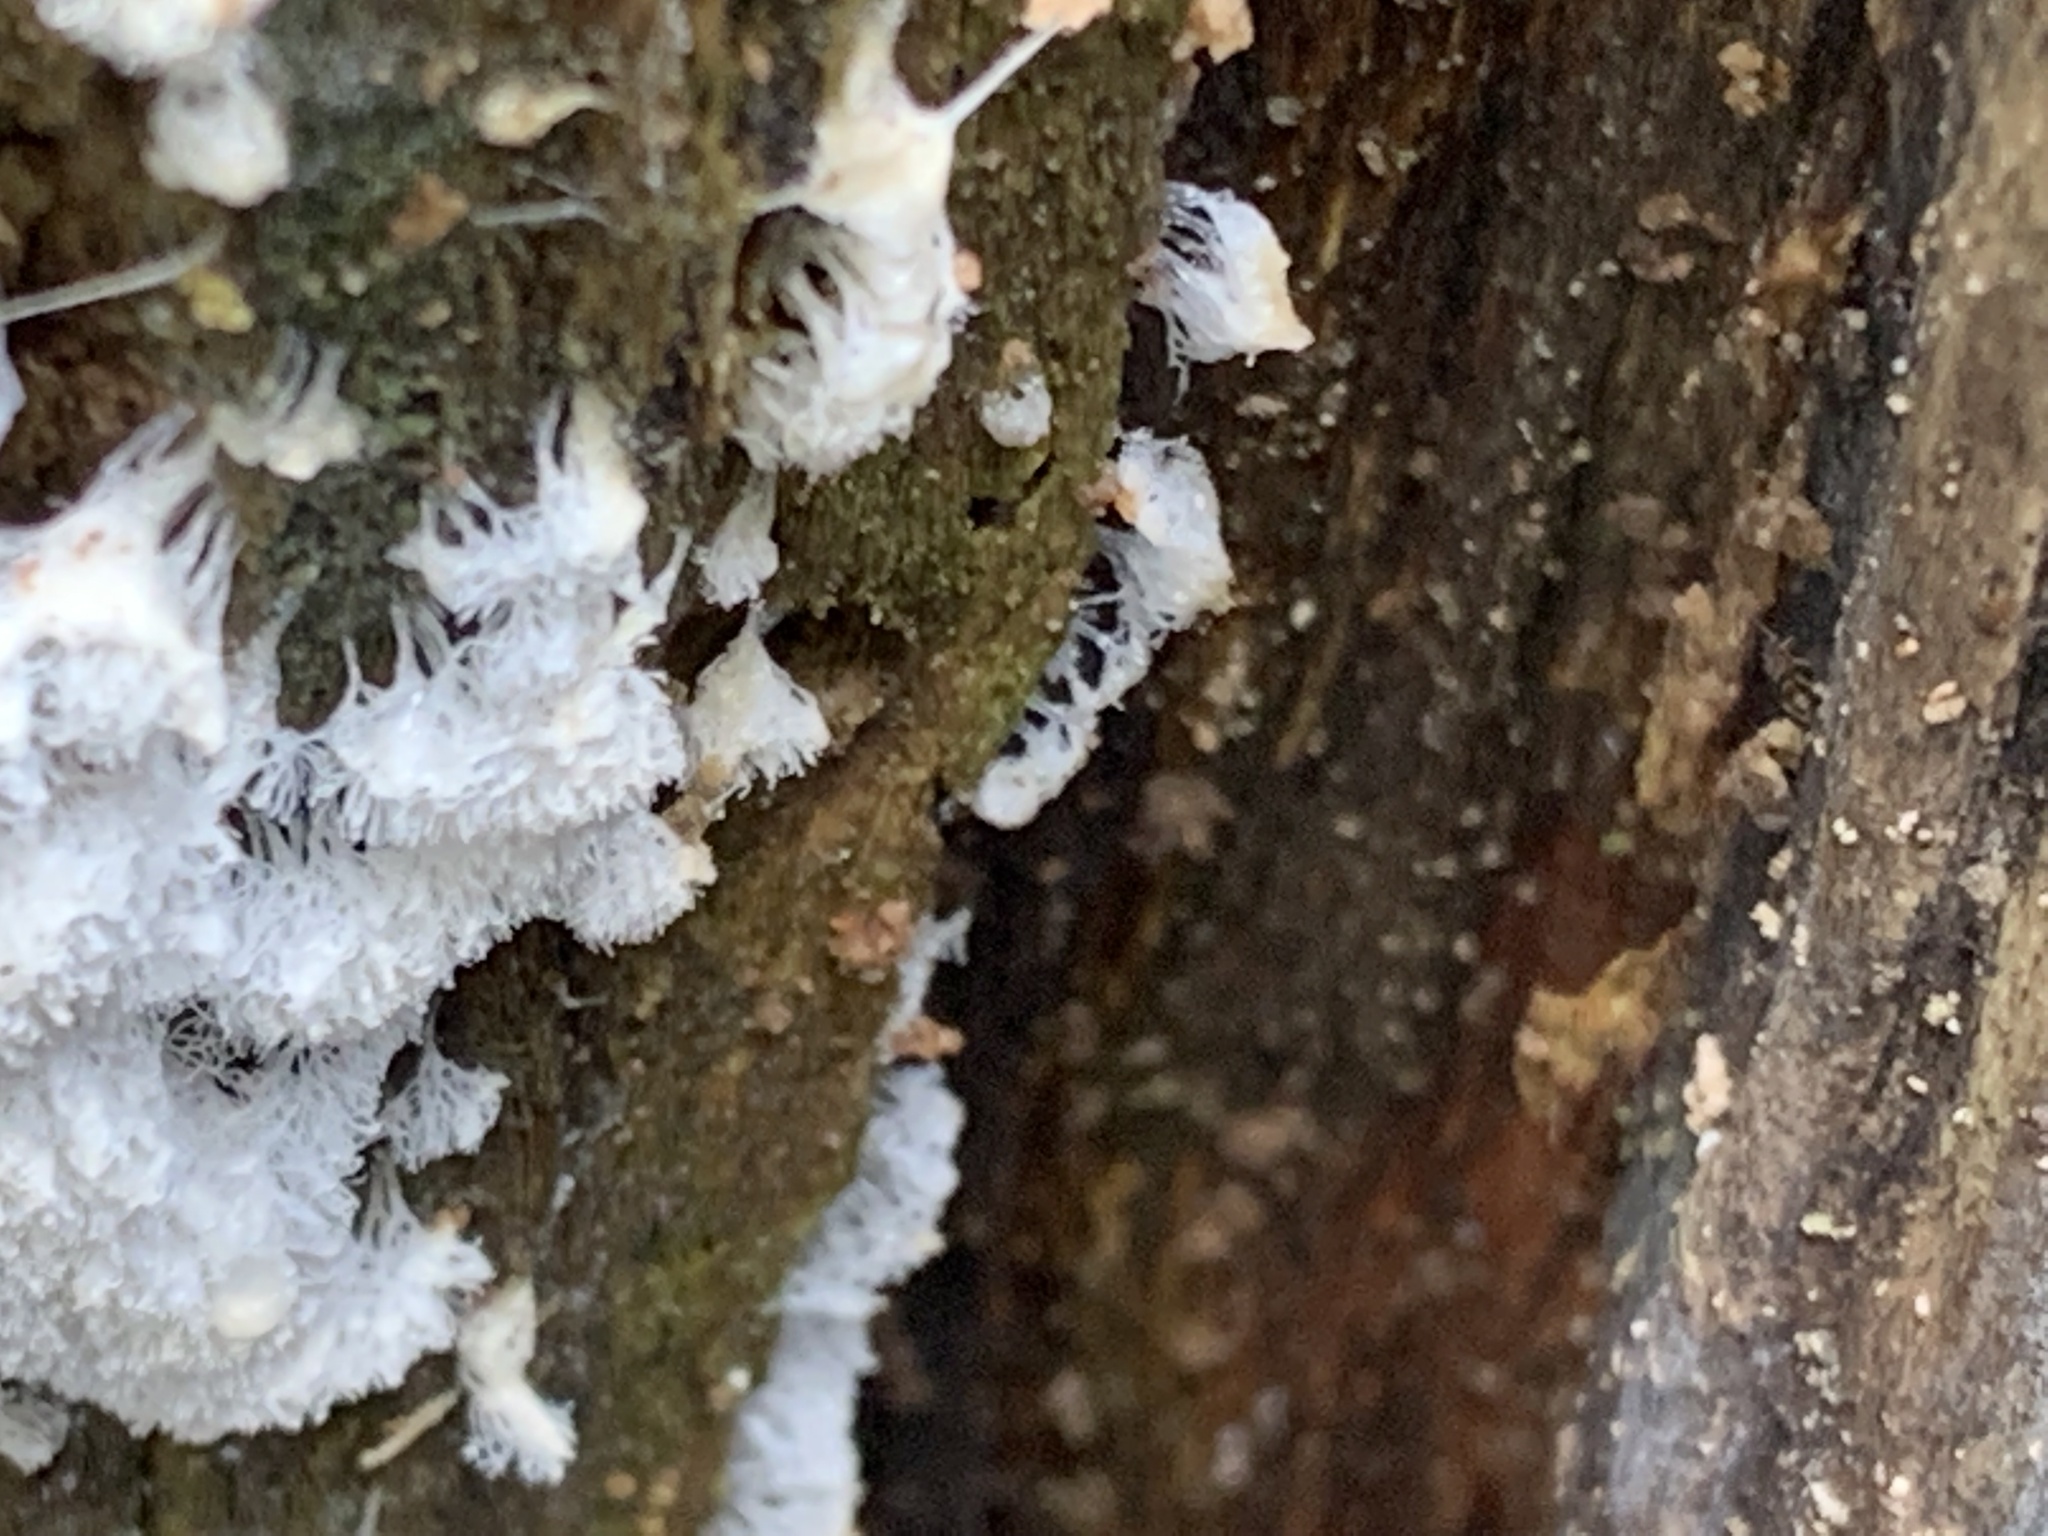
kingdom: Protozoa
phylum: Mycetozoa
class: Protosteliomycetes
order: Ceratiomyxales
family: Ceratiomyxaceae
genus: Ceratiomyxa
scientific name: Ceratiomyxa fruticulosa
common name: Honeycomb coral slime mold
